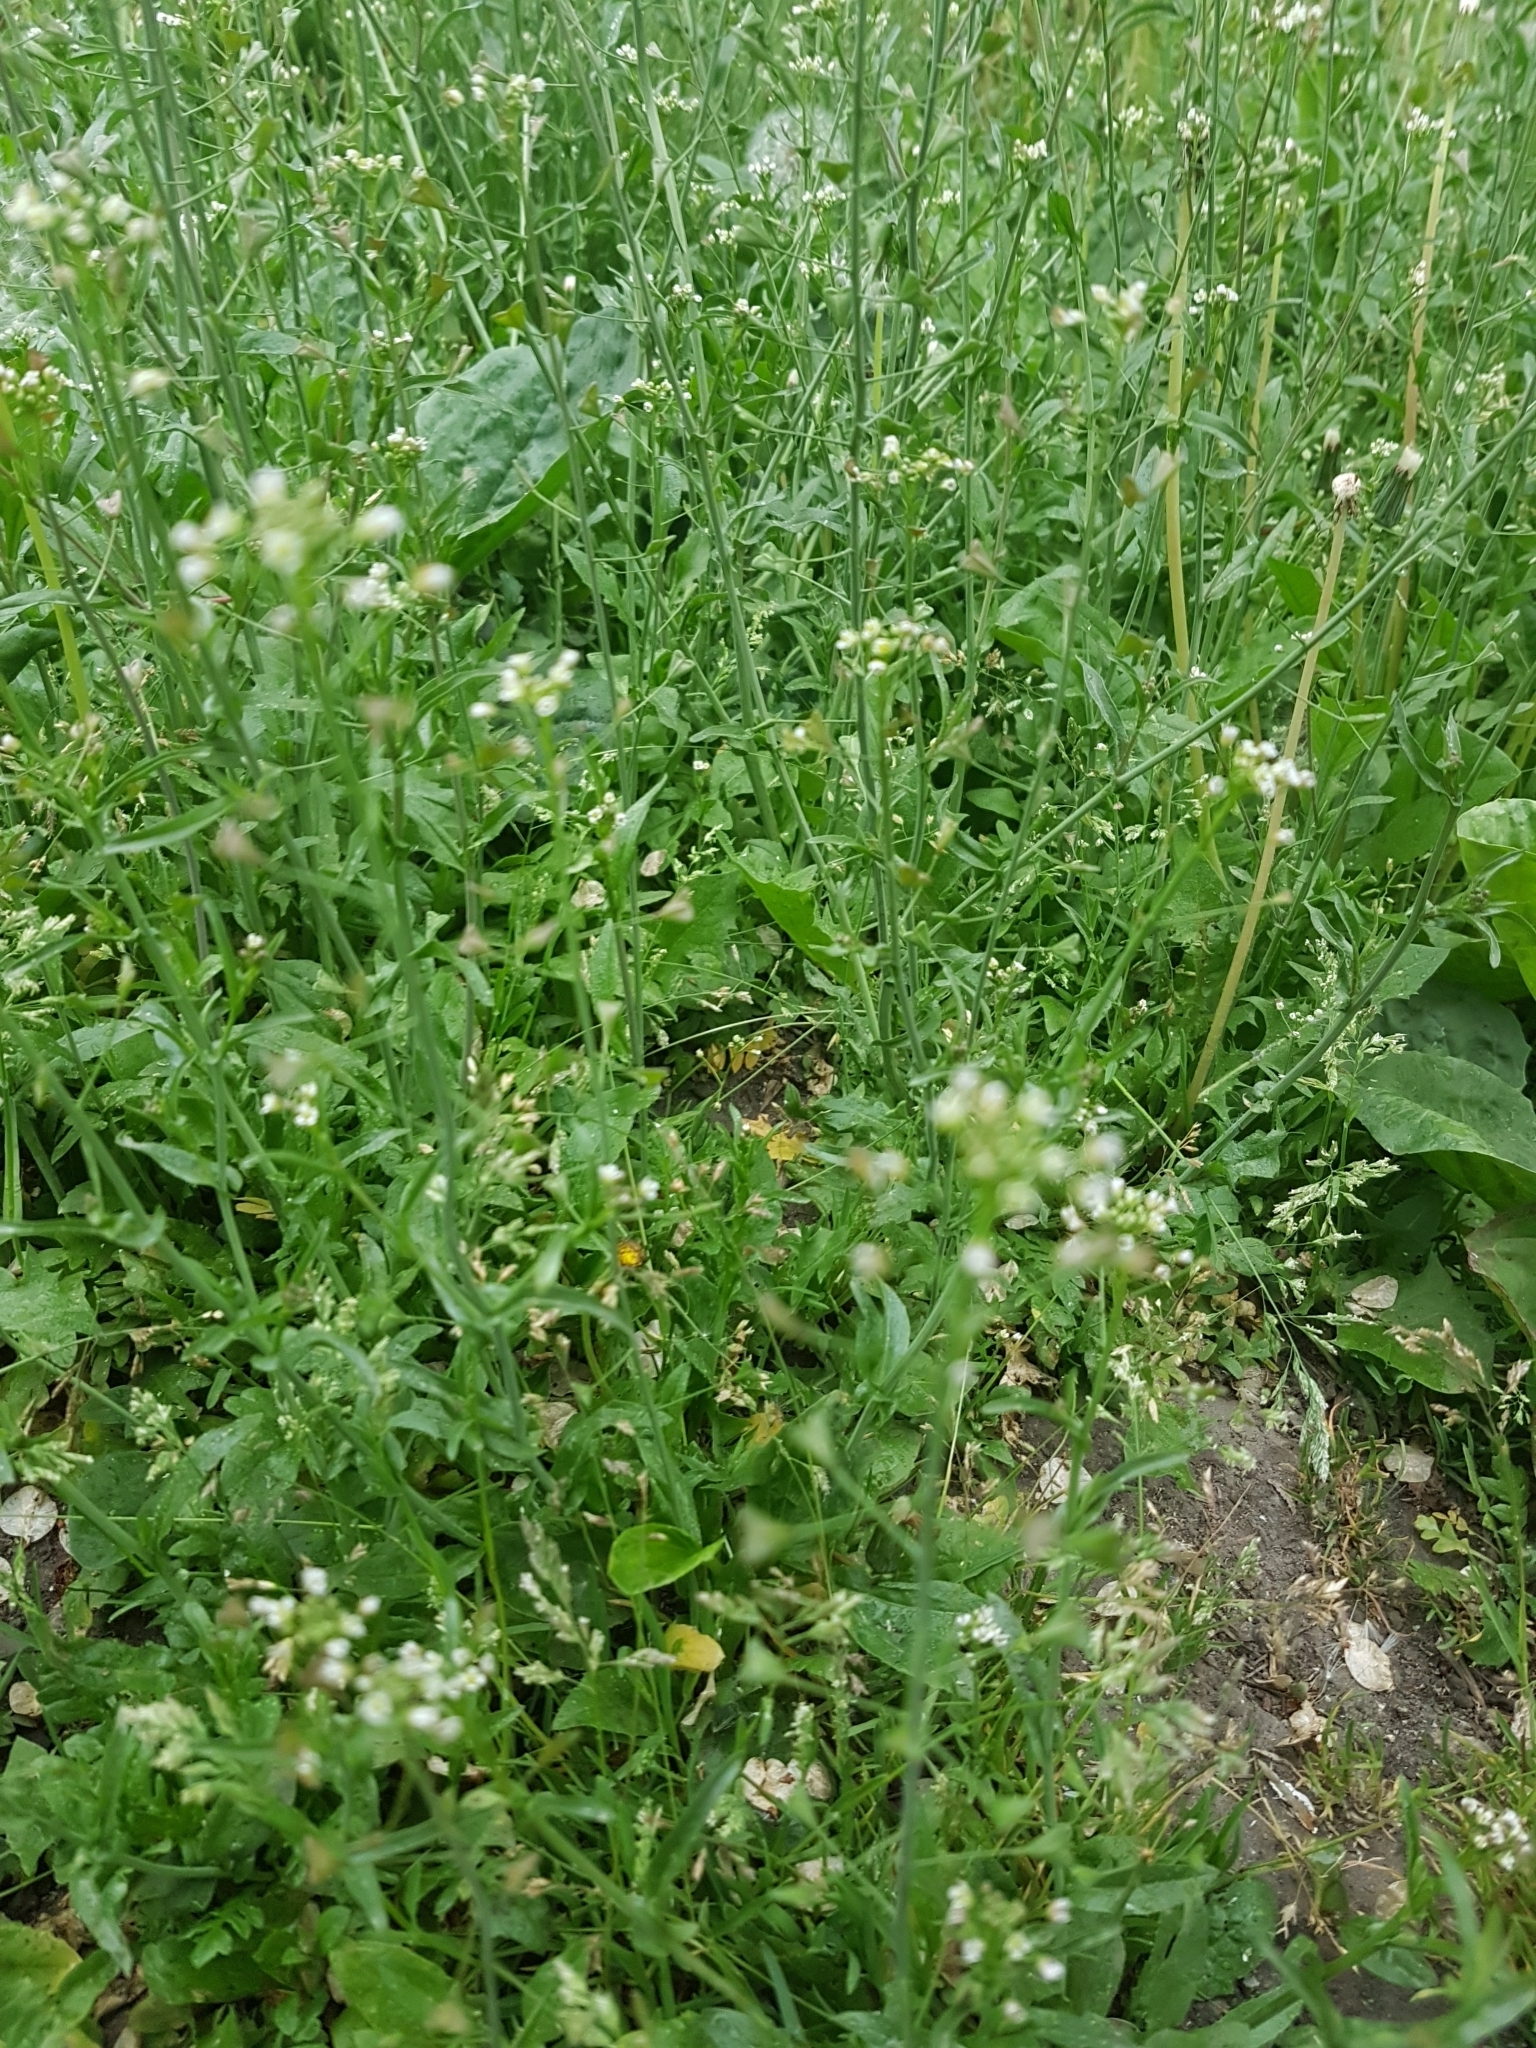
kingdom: Plantae
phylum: Tracheophyta
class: Magnoliopsida
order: Brassicales
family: Brassicaceae
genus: Capsella
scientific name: Capsella bursa-pastoris
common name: Shepherd's purse
